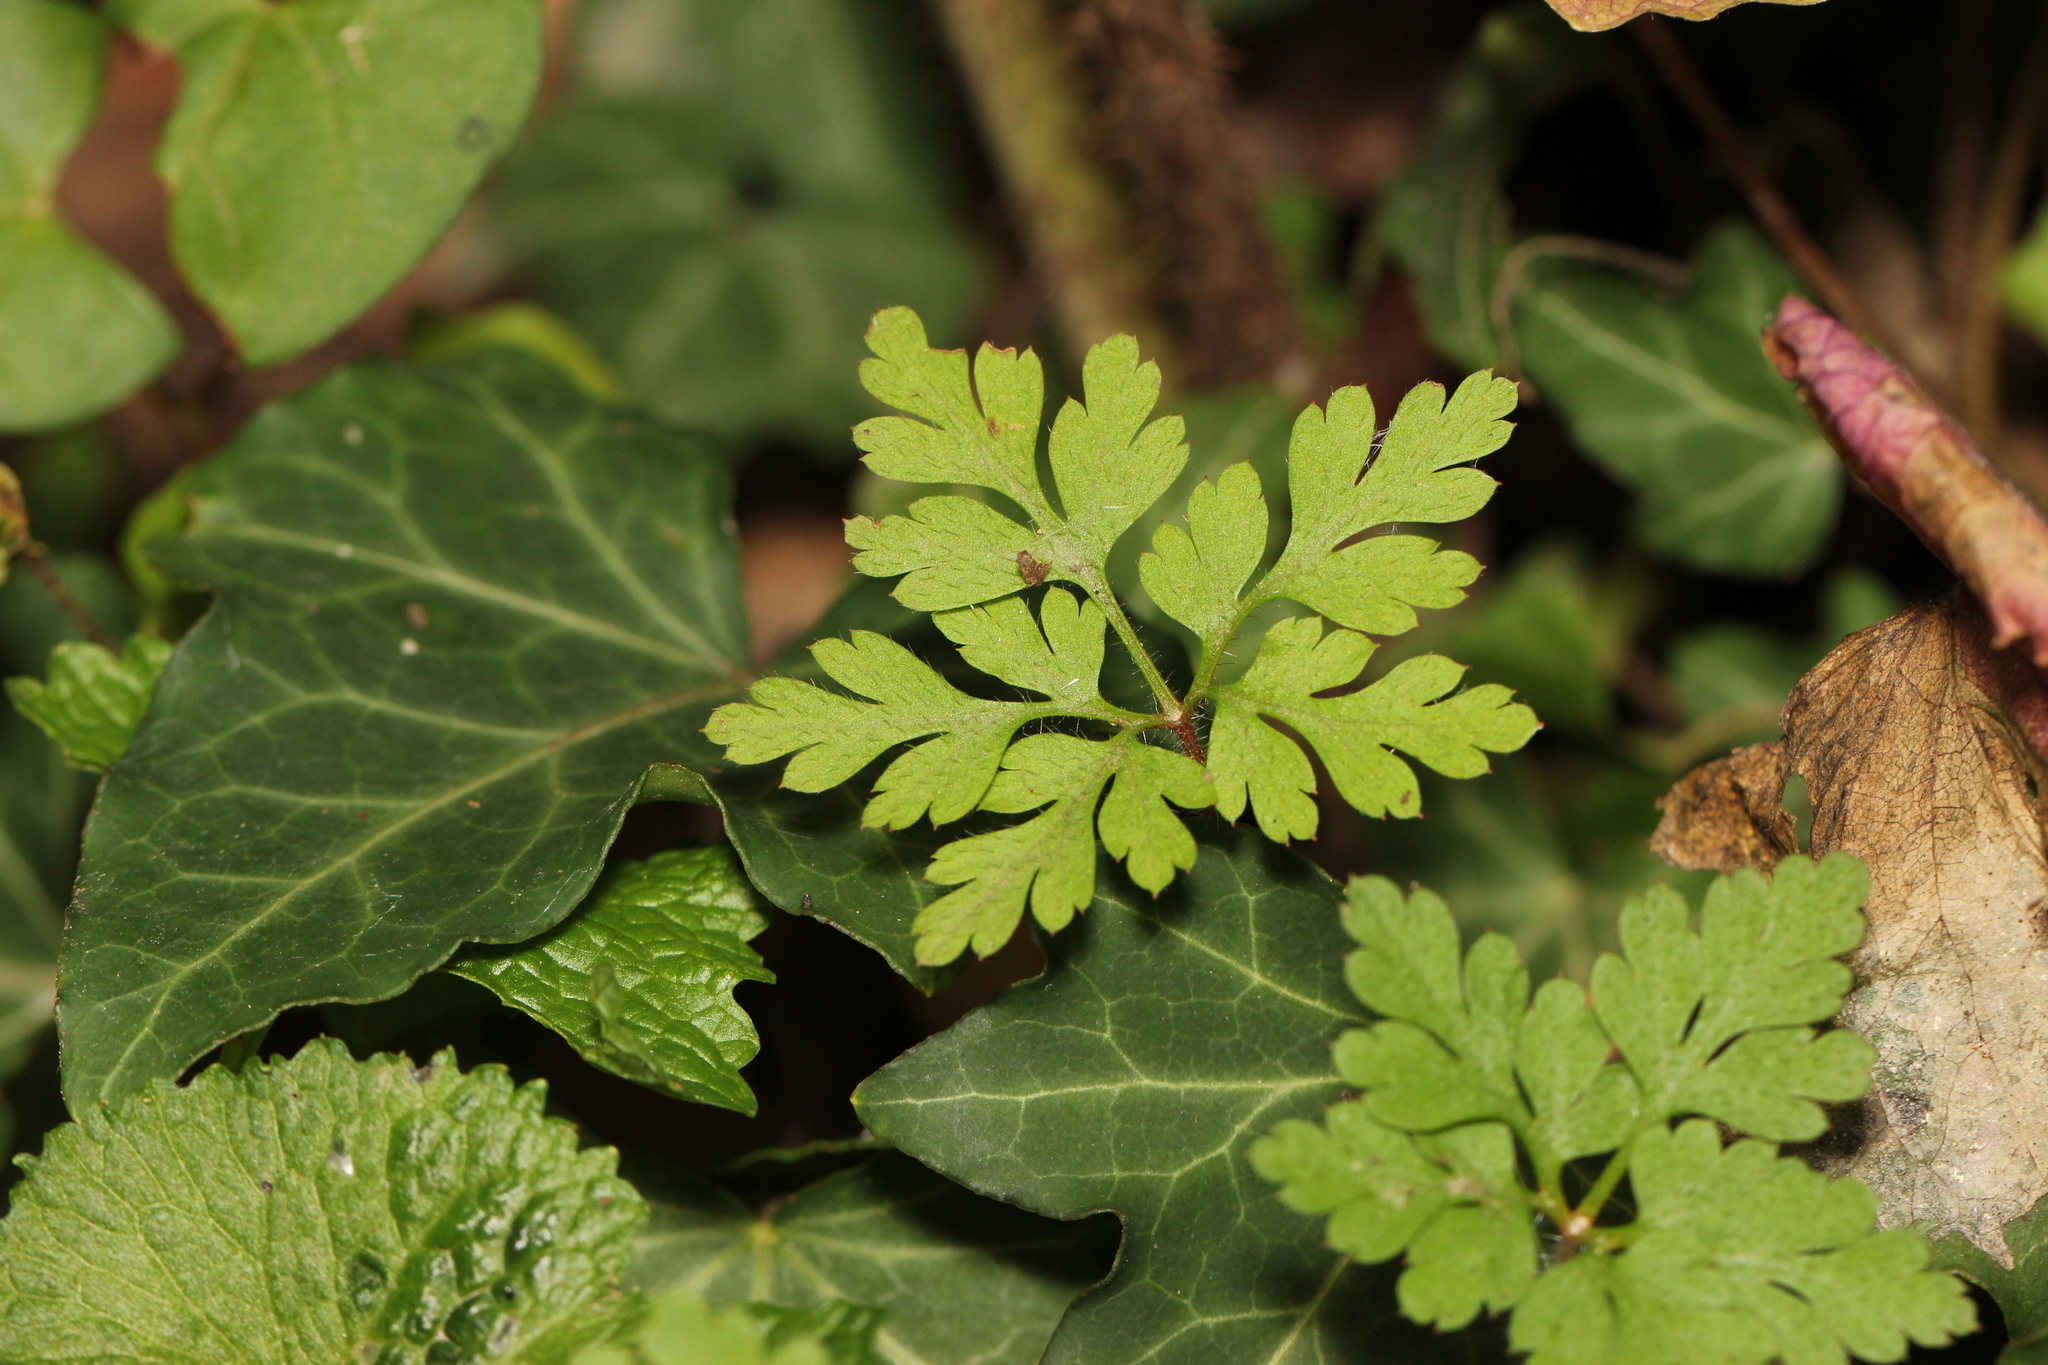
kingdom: Plantae
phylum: Tracheophyta
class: Magnoliopsida
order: Geraniales
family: Geraniaceae
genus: Geranium
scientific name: Geranium robertianum
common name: Herb-robert
